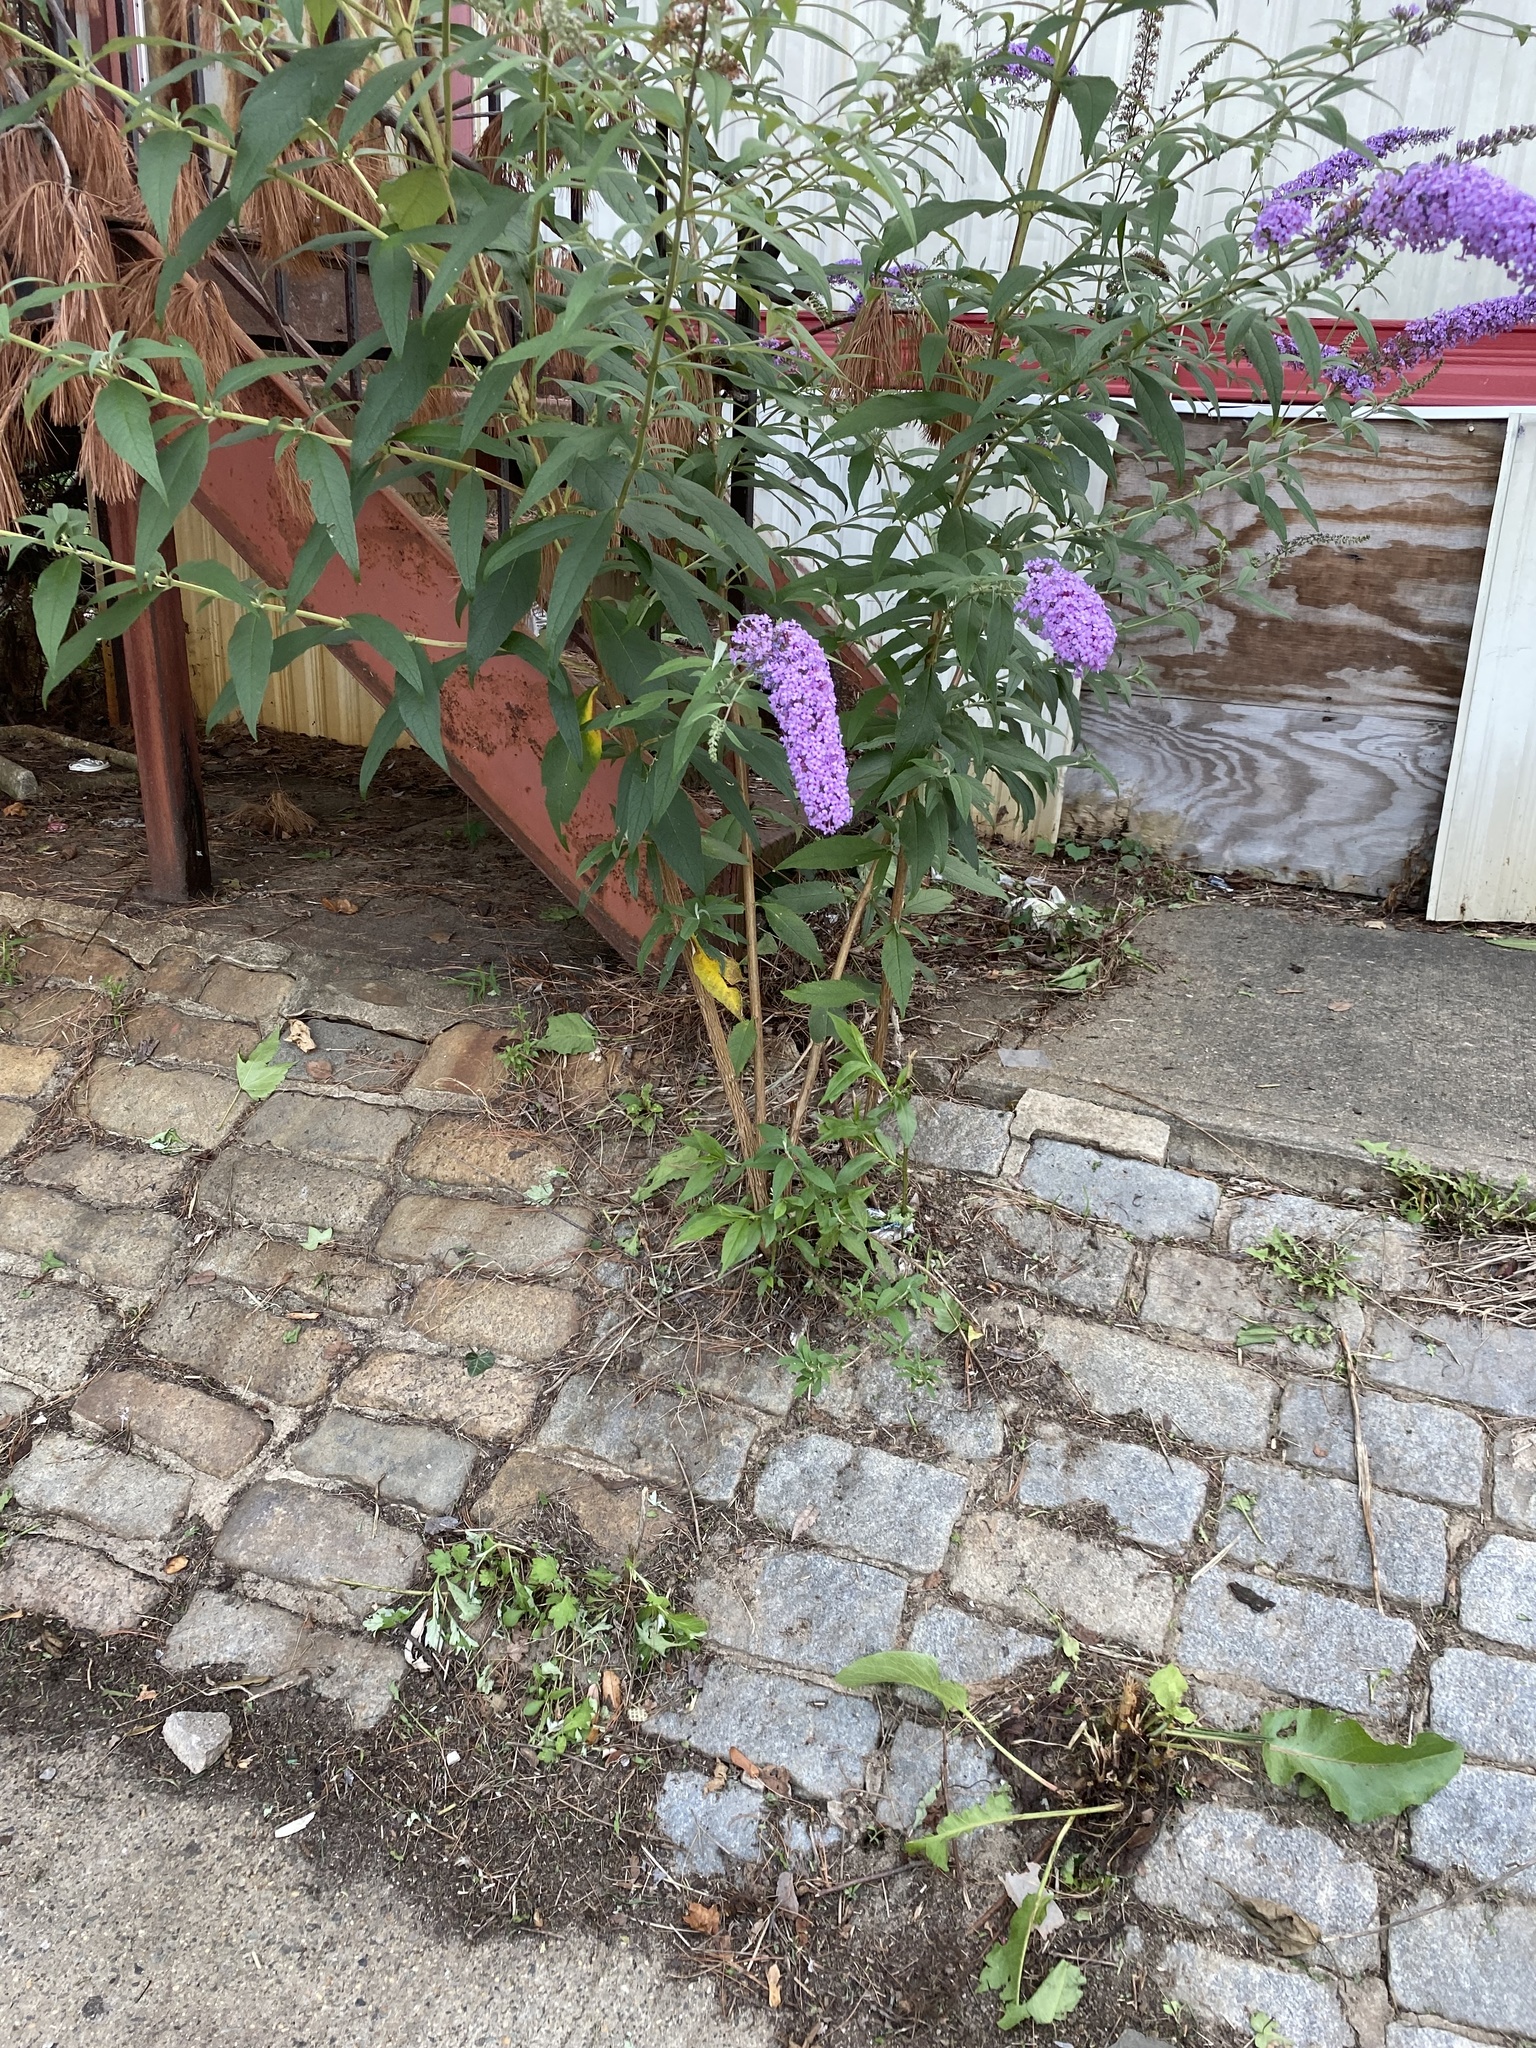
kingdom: Plantae
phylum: Tracheophyta
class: Magnoliopsida
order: Lamiales
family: Scrophulariaceae
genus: Buddleja
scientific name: Buddleja davidii
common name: Butterfly-bush
